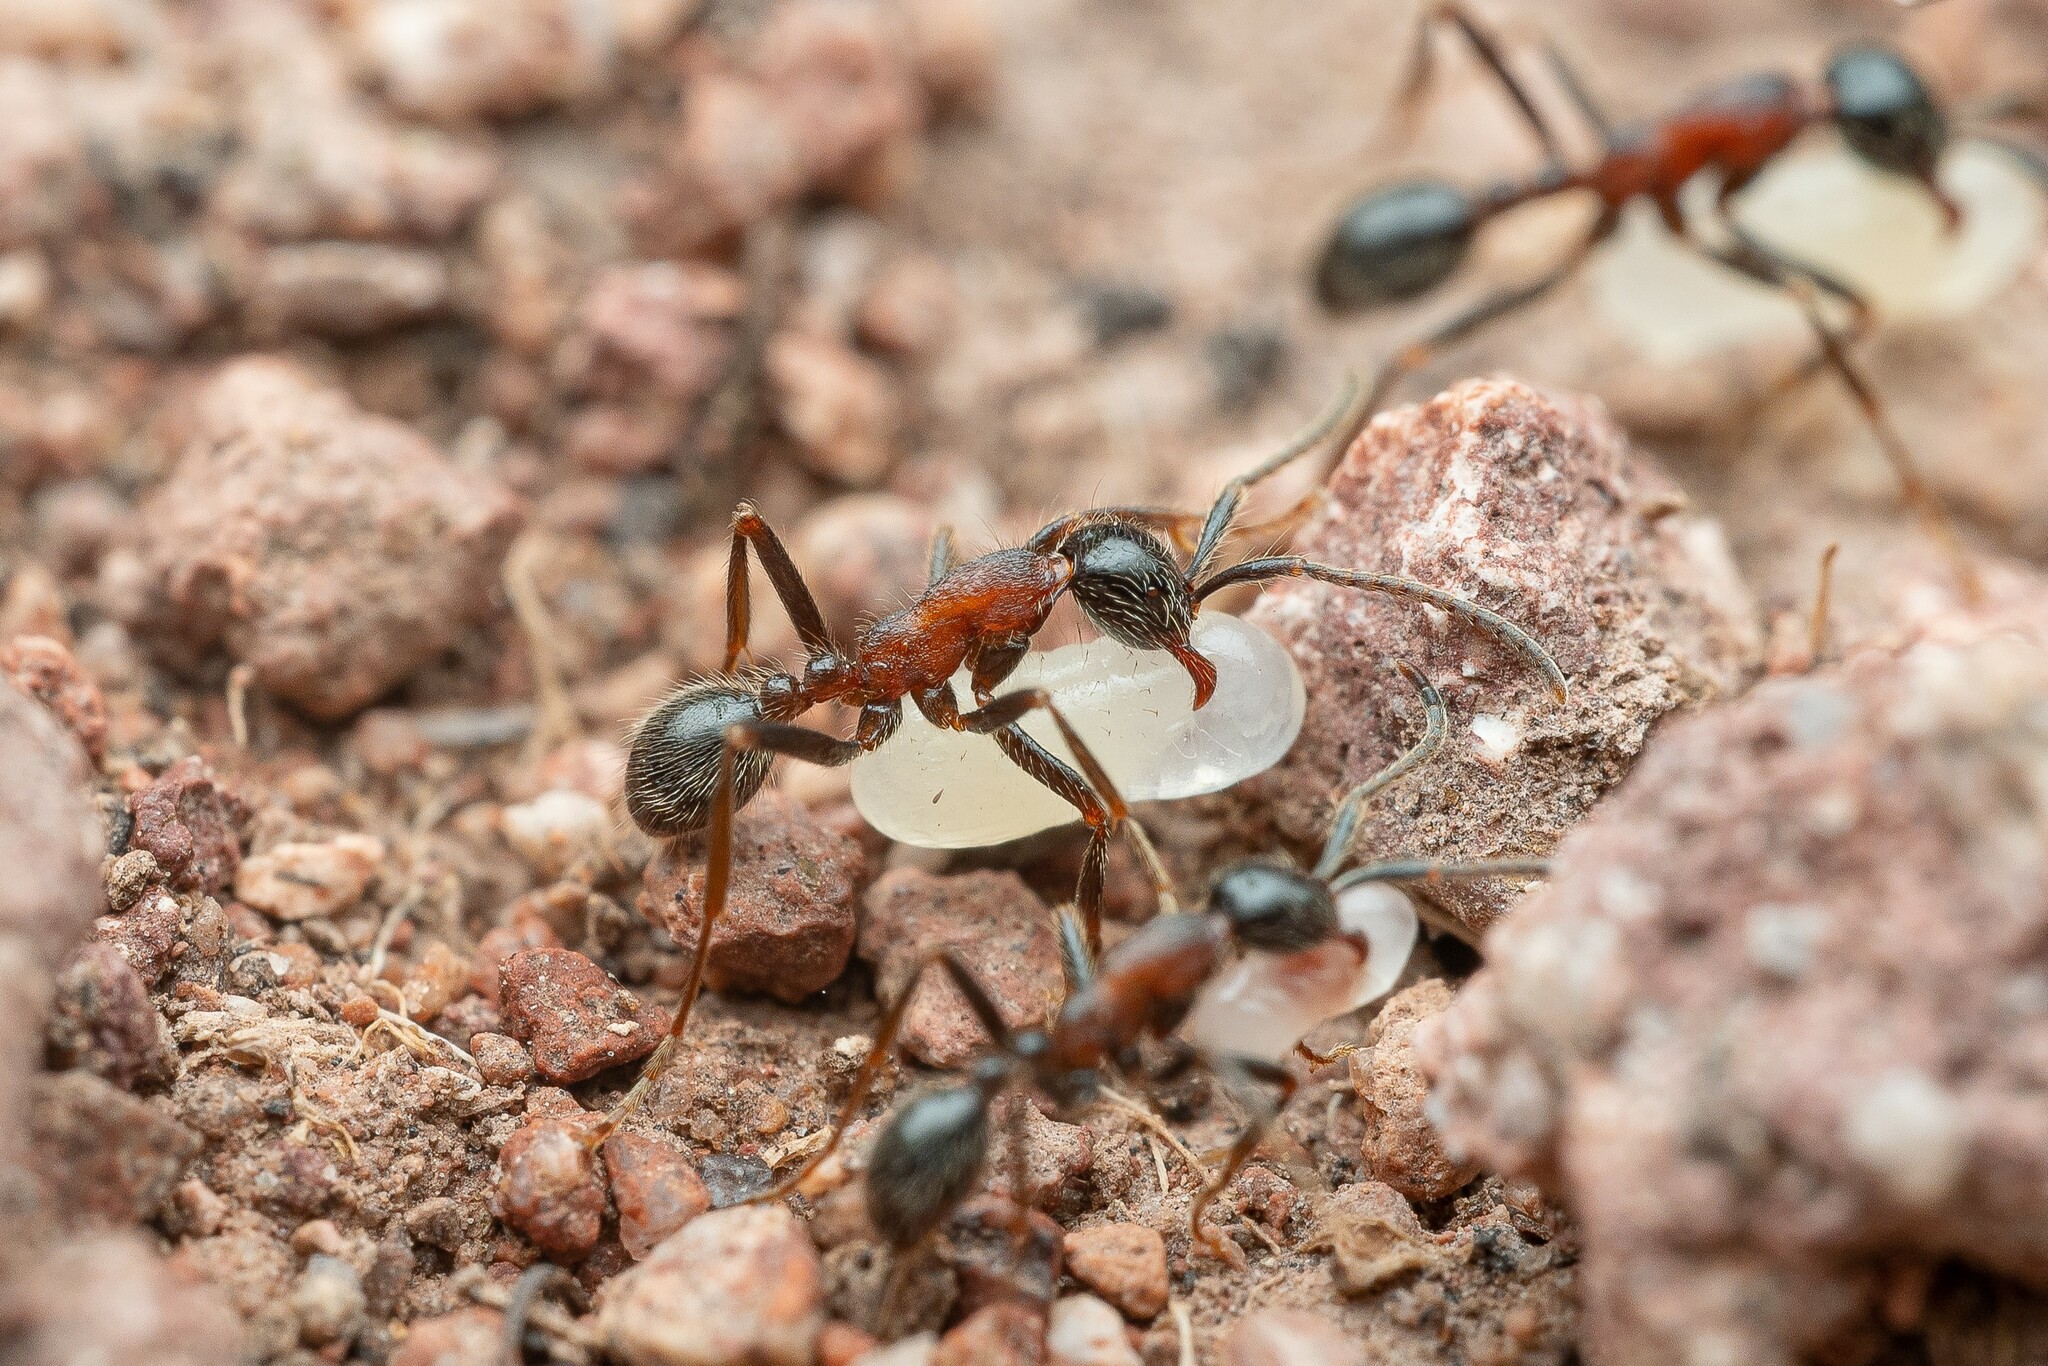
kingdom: Animalia
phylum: Arthropoda
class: Insecta
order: Hymenoptera
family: Formicidae
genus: Neivamyrmex
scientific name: Neivamyrmex melanocephalus
